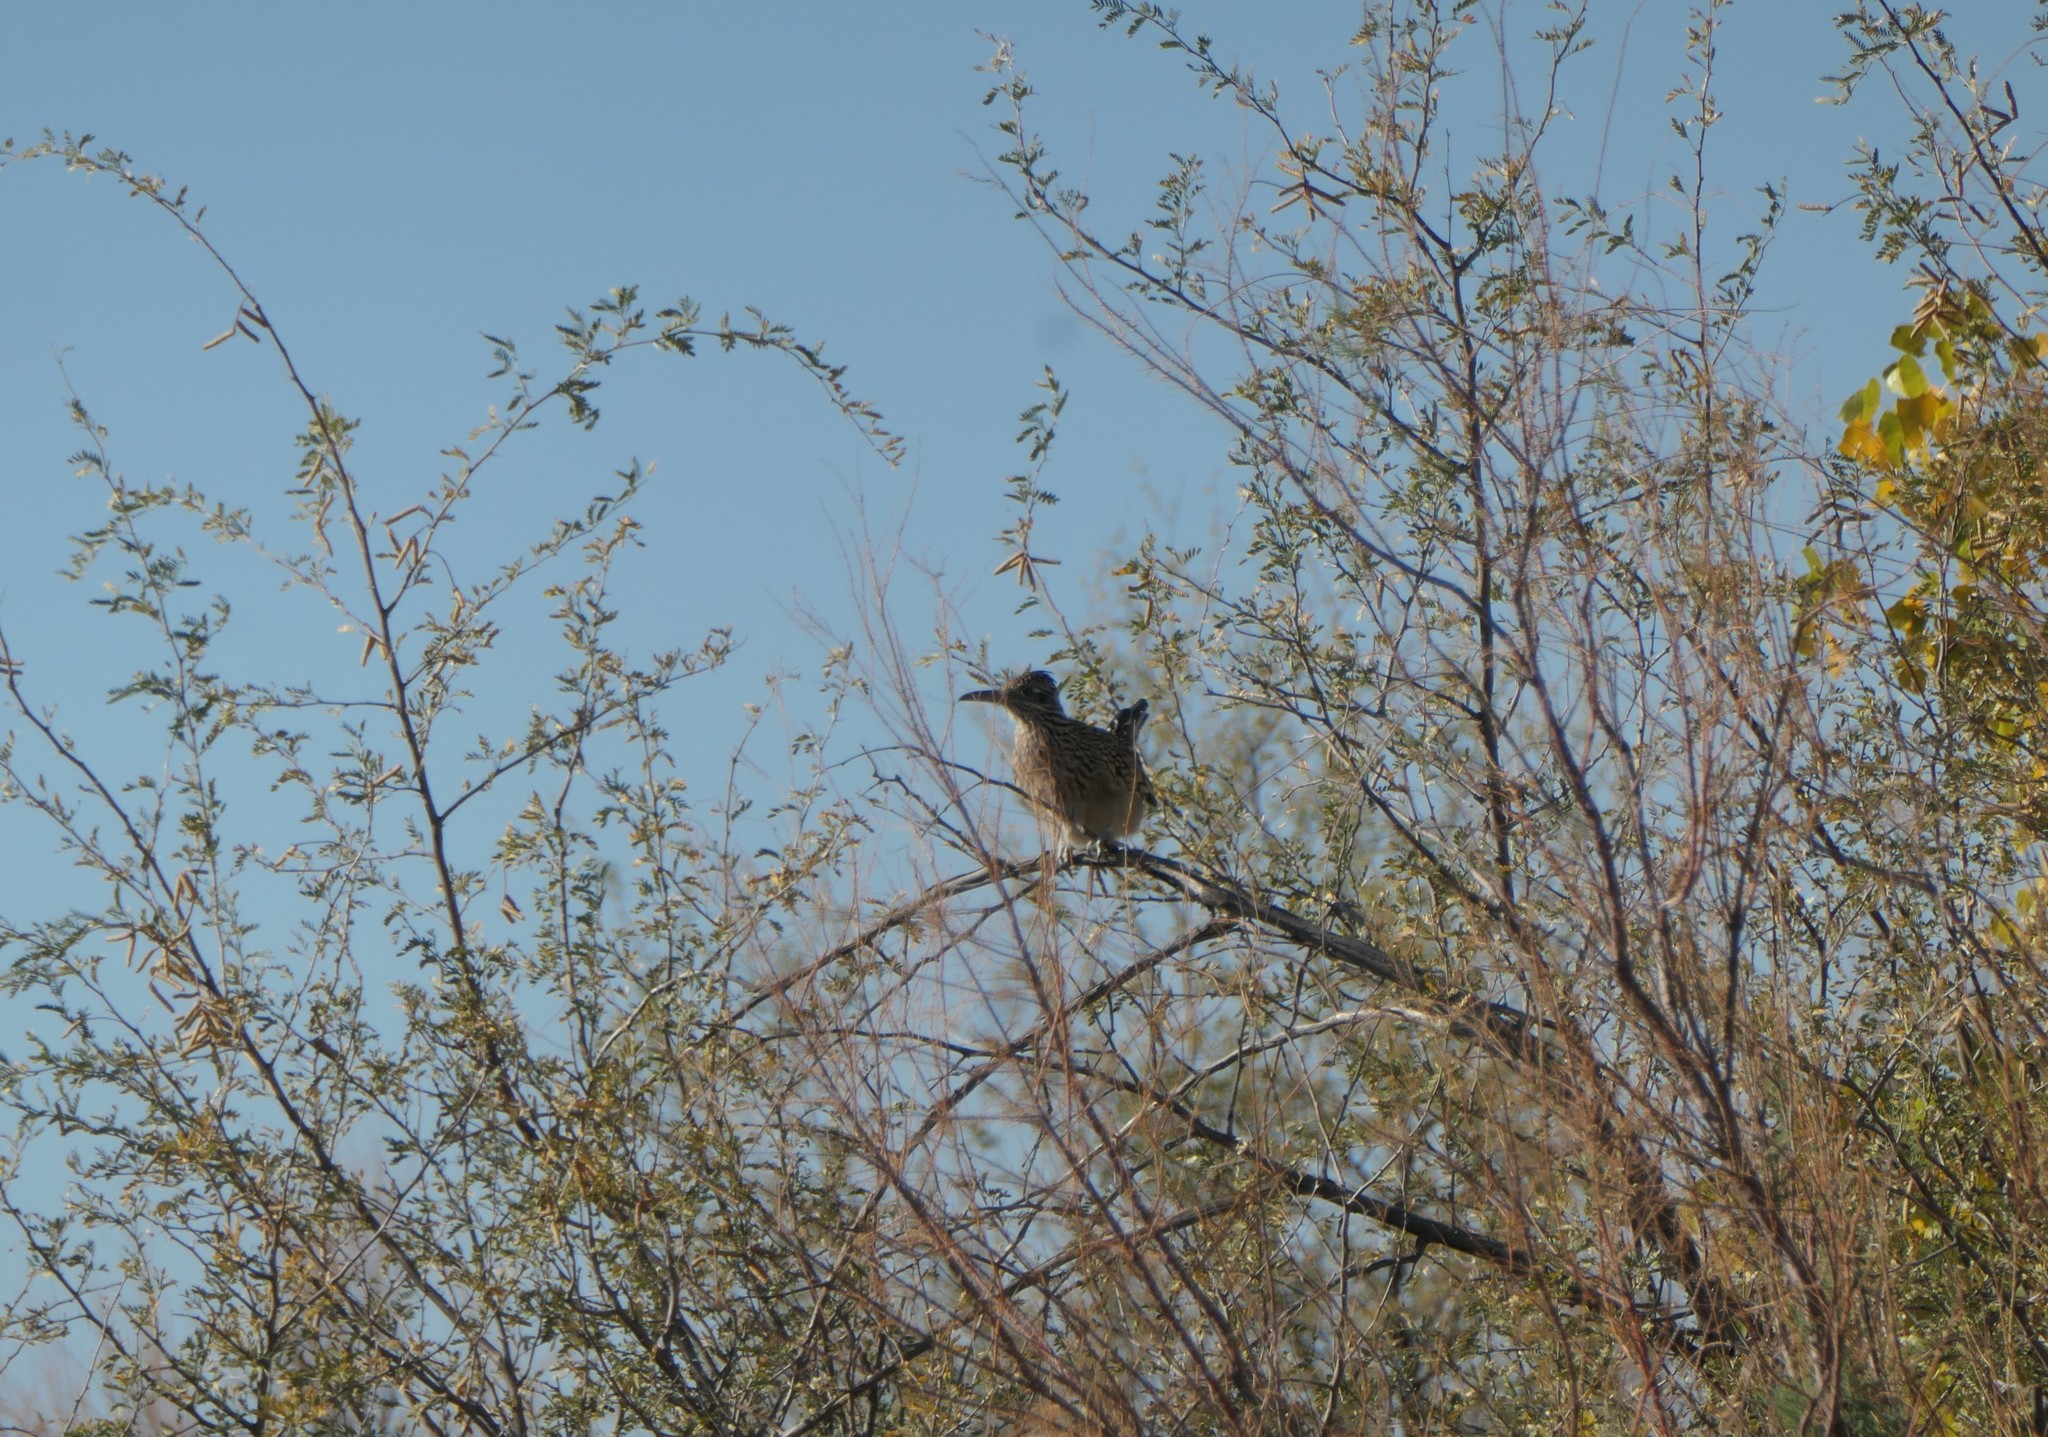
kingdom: Animalia
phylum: Chordata
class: Aves
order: Cuculiformes
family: Cuculidae
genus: Geococcyx
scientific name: Geococcyx californianus
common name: Greater roadrunner
